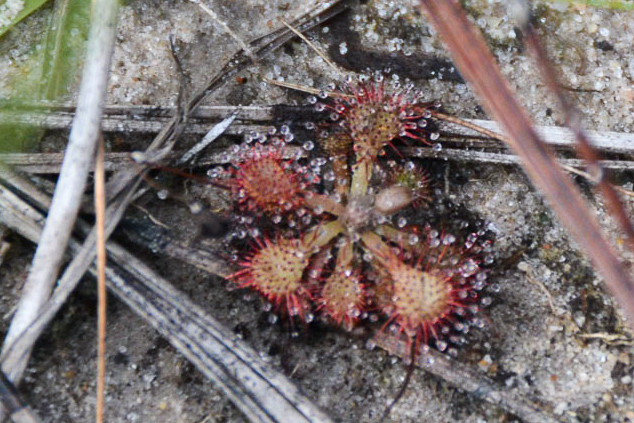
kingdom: Plantae
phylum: Tracheophyta
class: Magnoliopsida
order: Caryophyllales
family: Droseraceae
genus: Drosera
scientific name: Drosera capillaris
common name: Pink sundew
